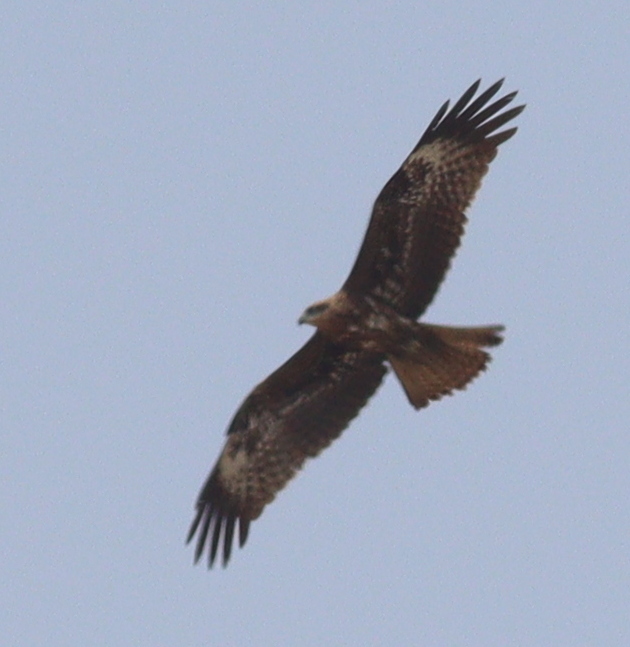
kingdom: Animalia
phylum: Chordata
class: Aves
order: Accipitriformes
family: Accipitridae
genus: Milvus
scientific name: Milvus migrans
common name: Black kite
